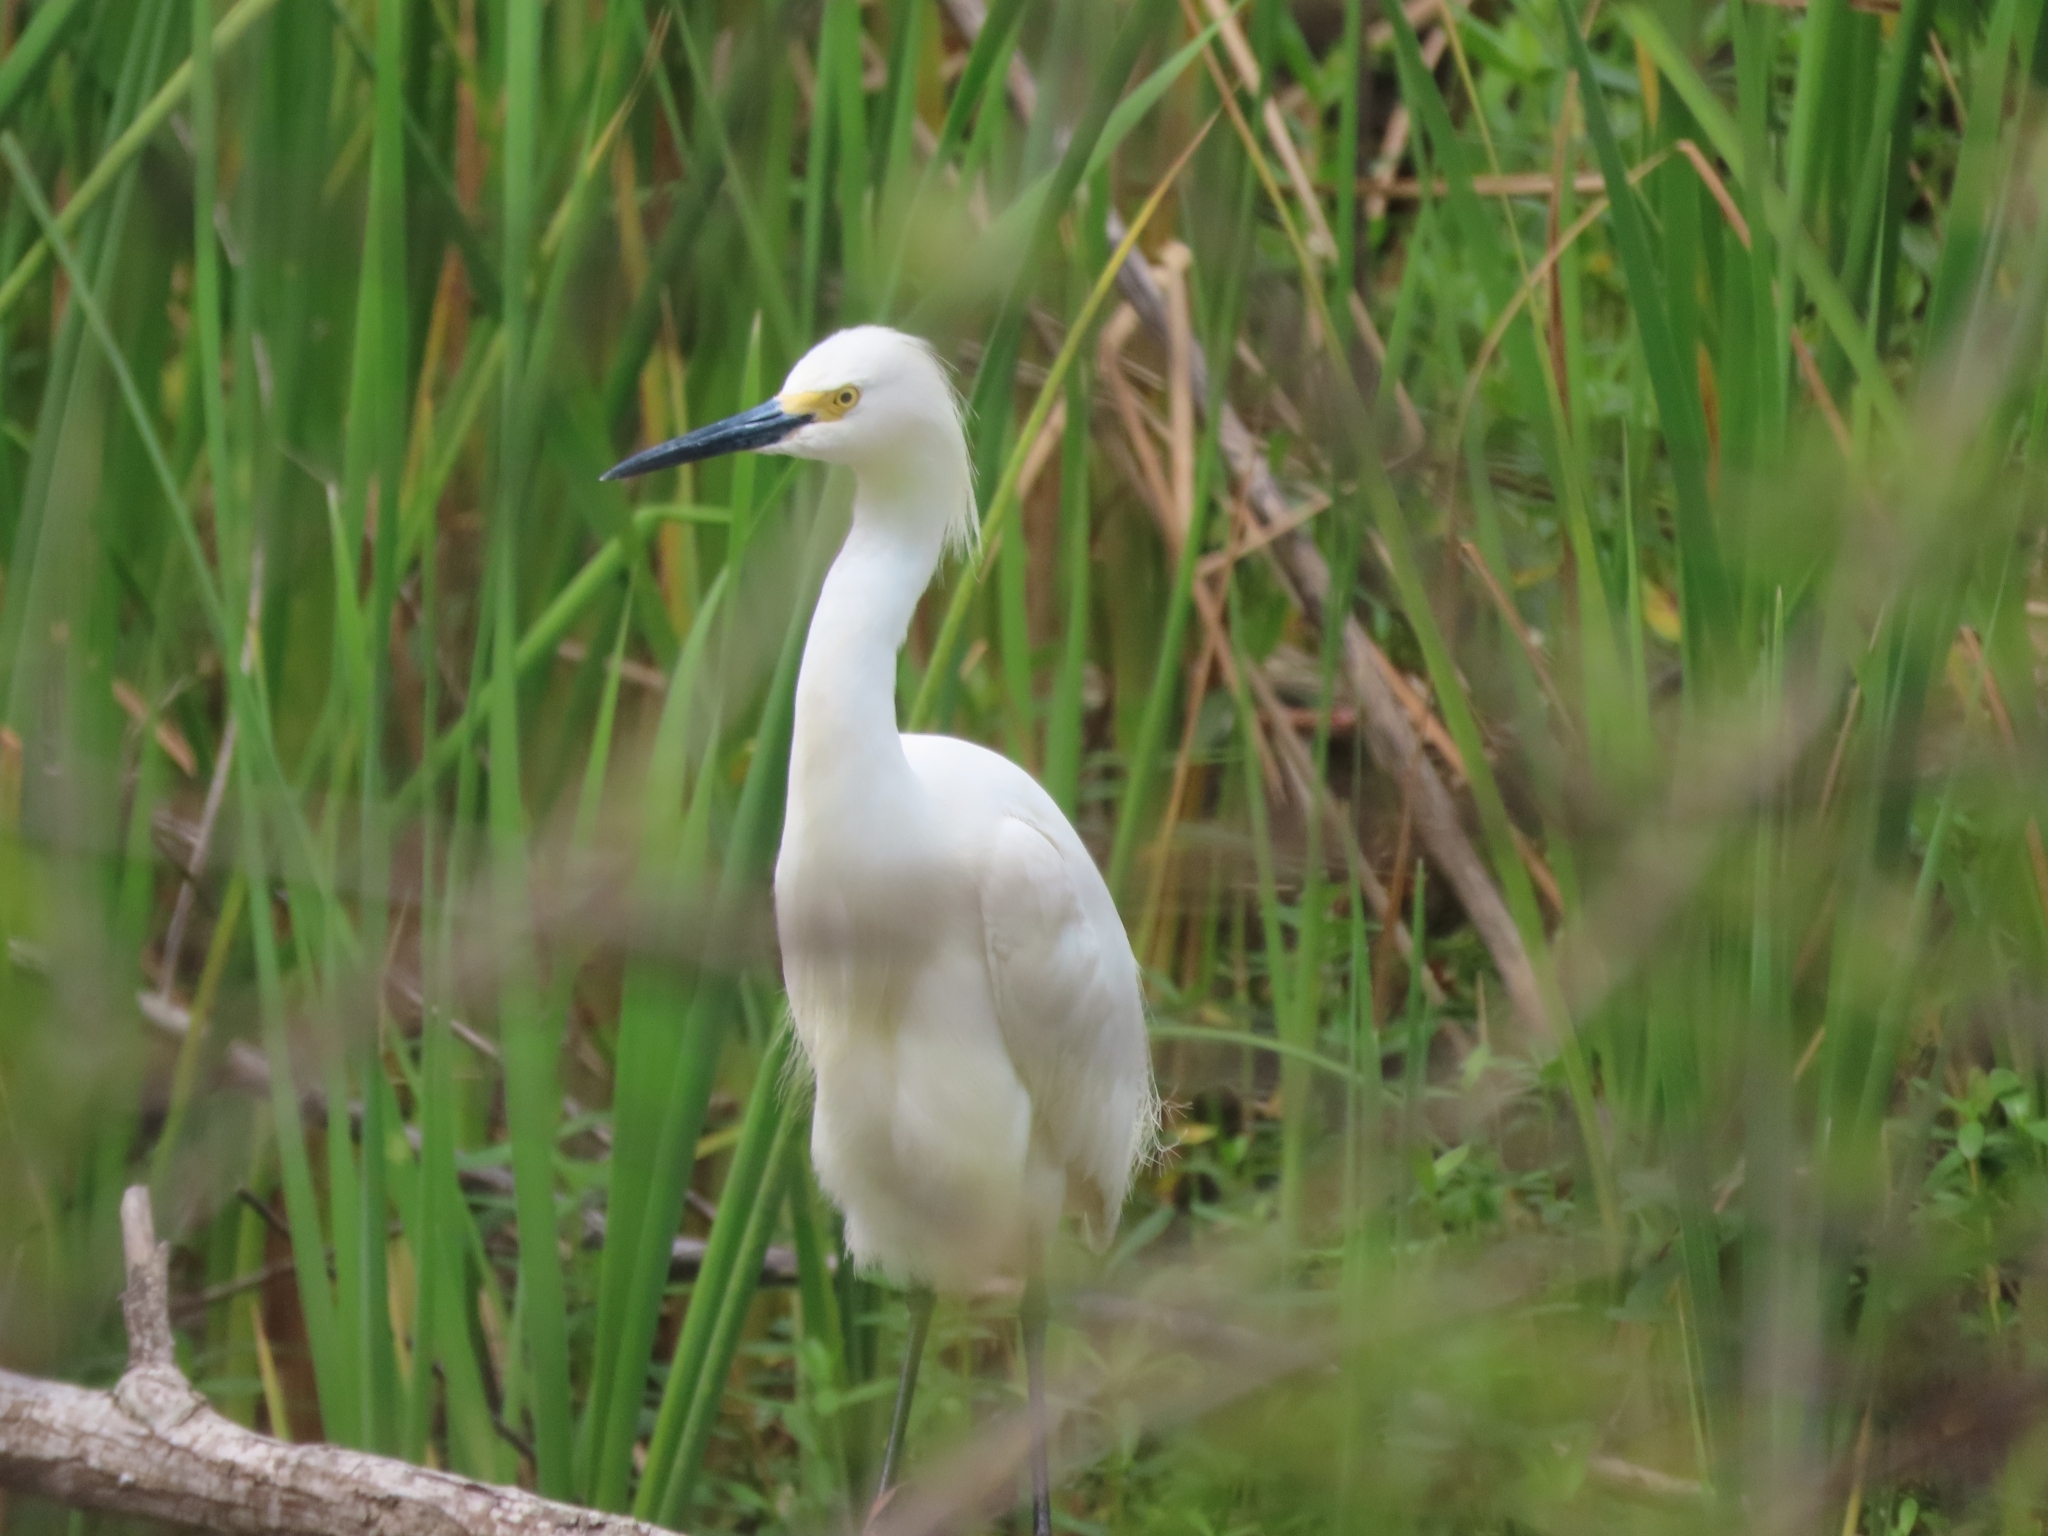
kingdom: Animalia
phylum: Chordata
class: Aves
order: Pelecaniformes
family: Ardeidae
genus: Egretta
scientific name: Egretta thula
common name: Snowy egret
